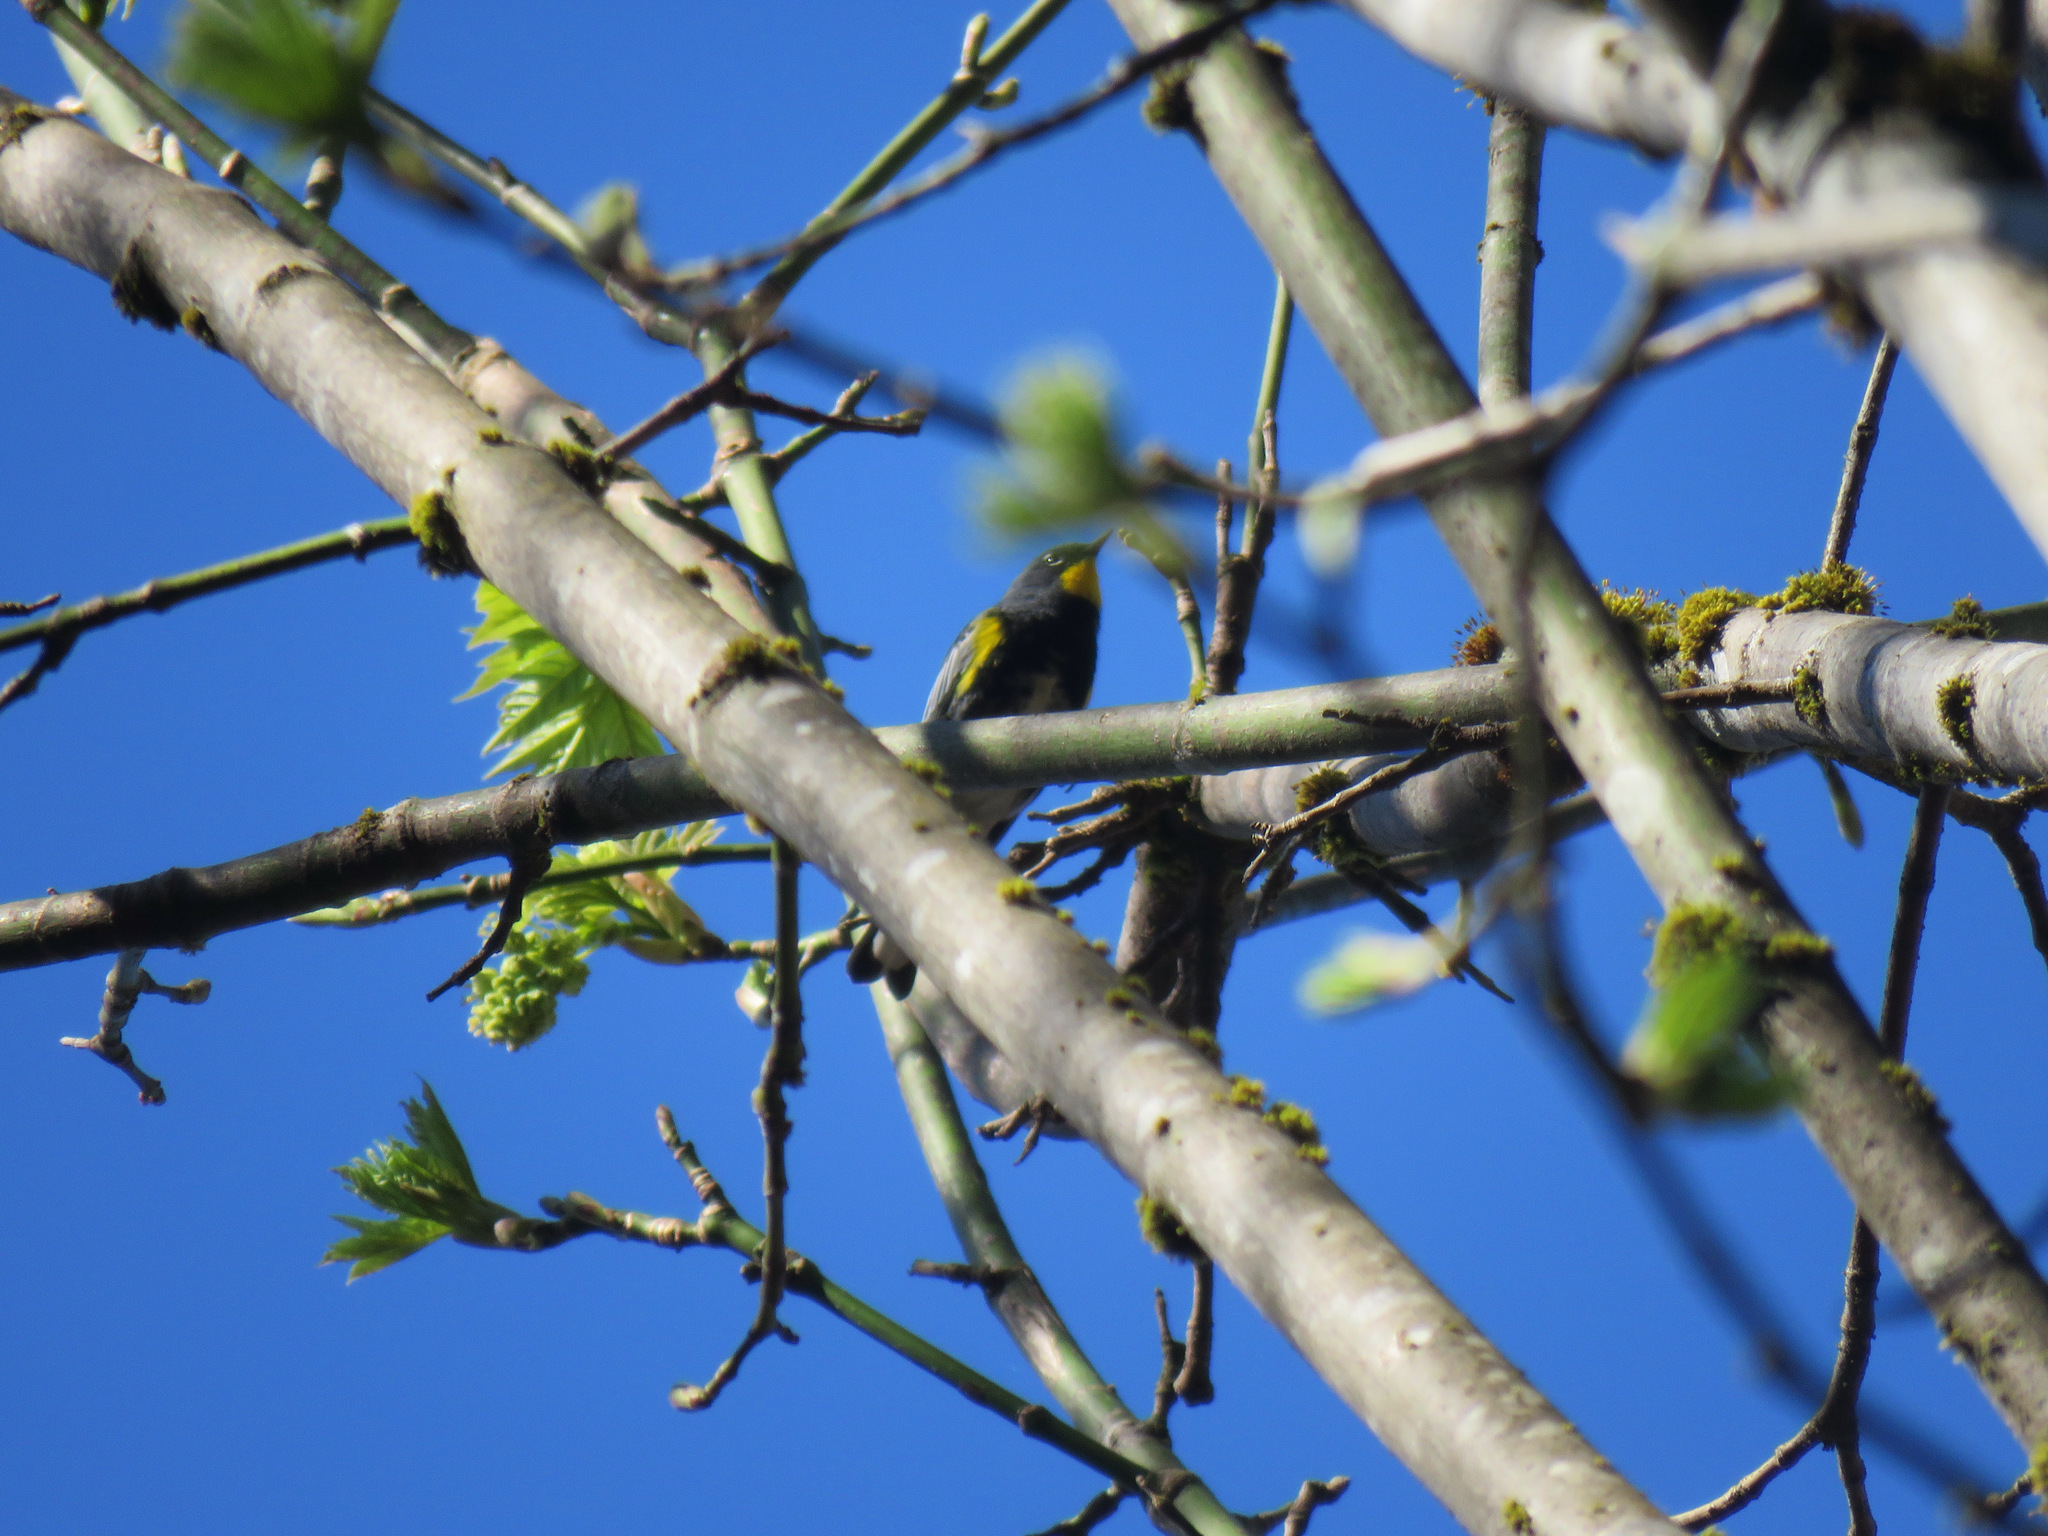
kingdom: Animalia
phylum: Chordata
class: Aves
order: Passeriformes
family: Parulidae
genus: Setophaga
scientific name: Setophaga auduboni
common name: Audubon's warbler
